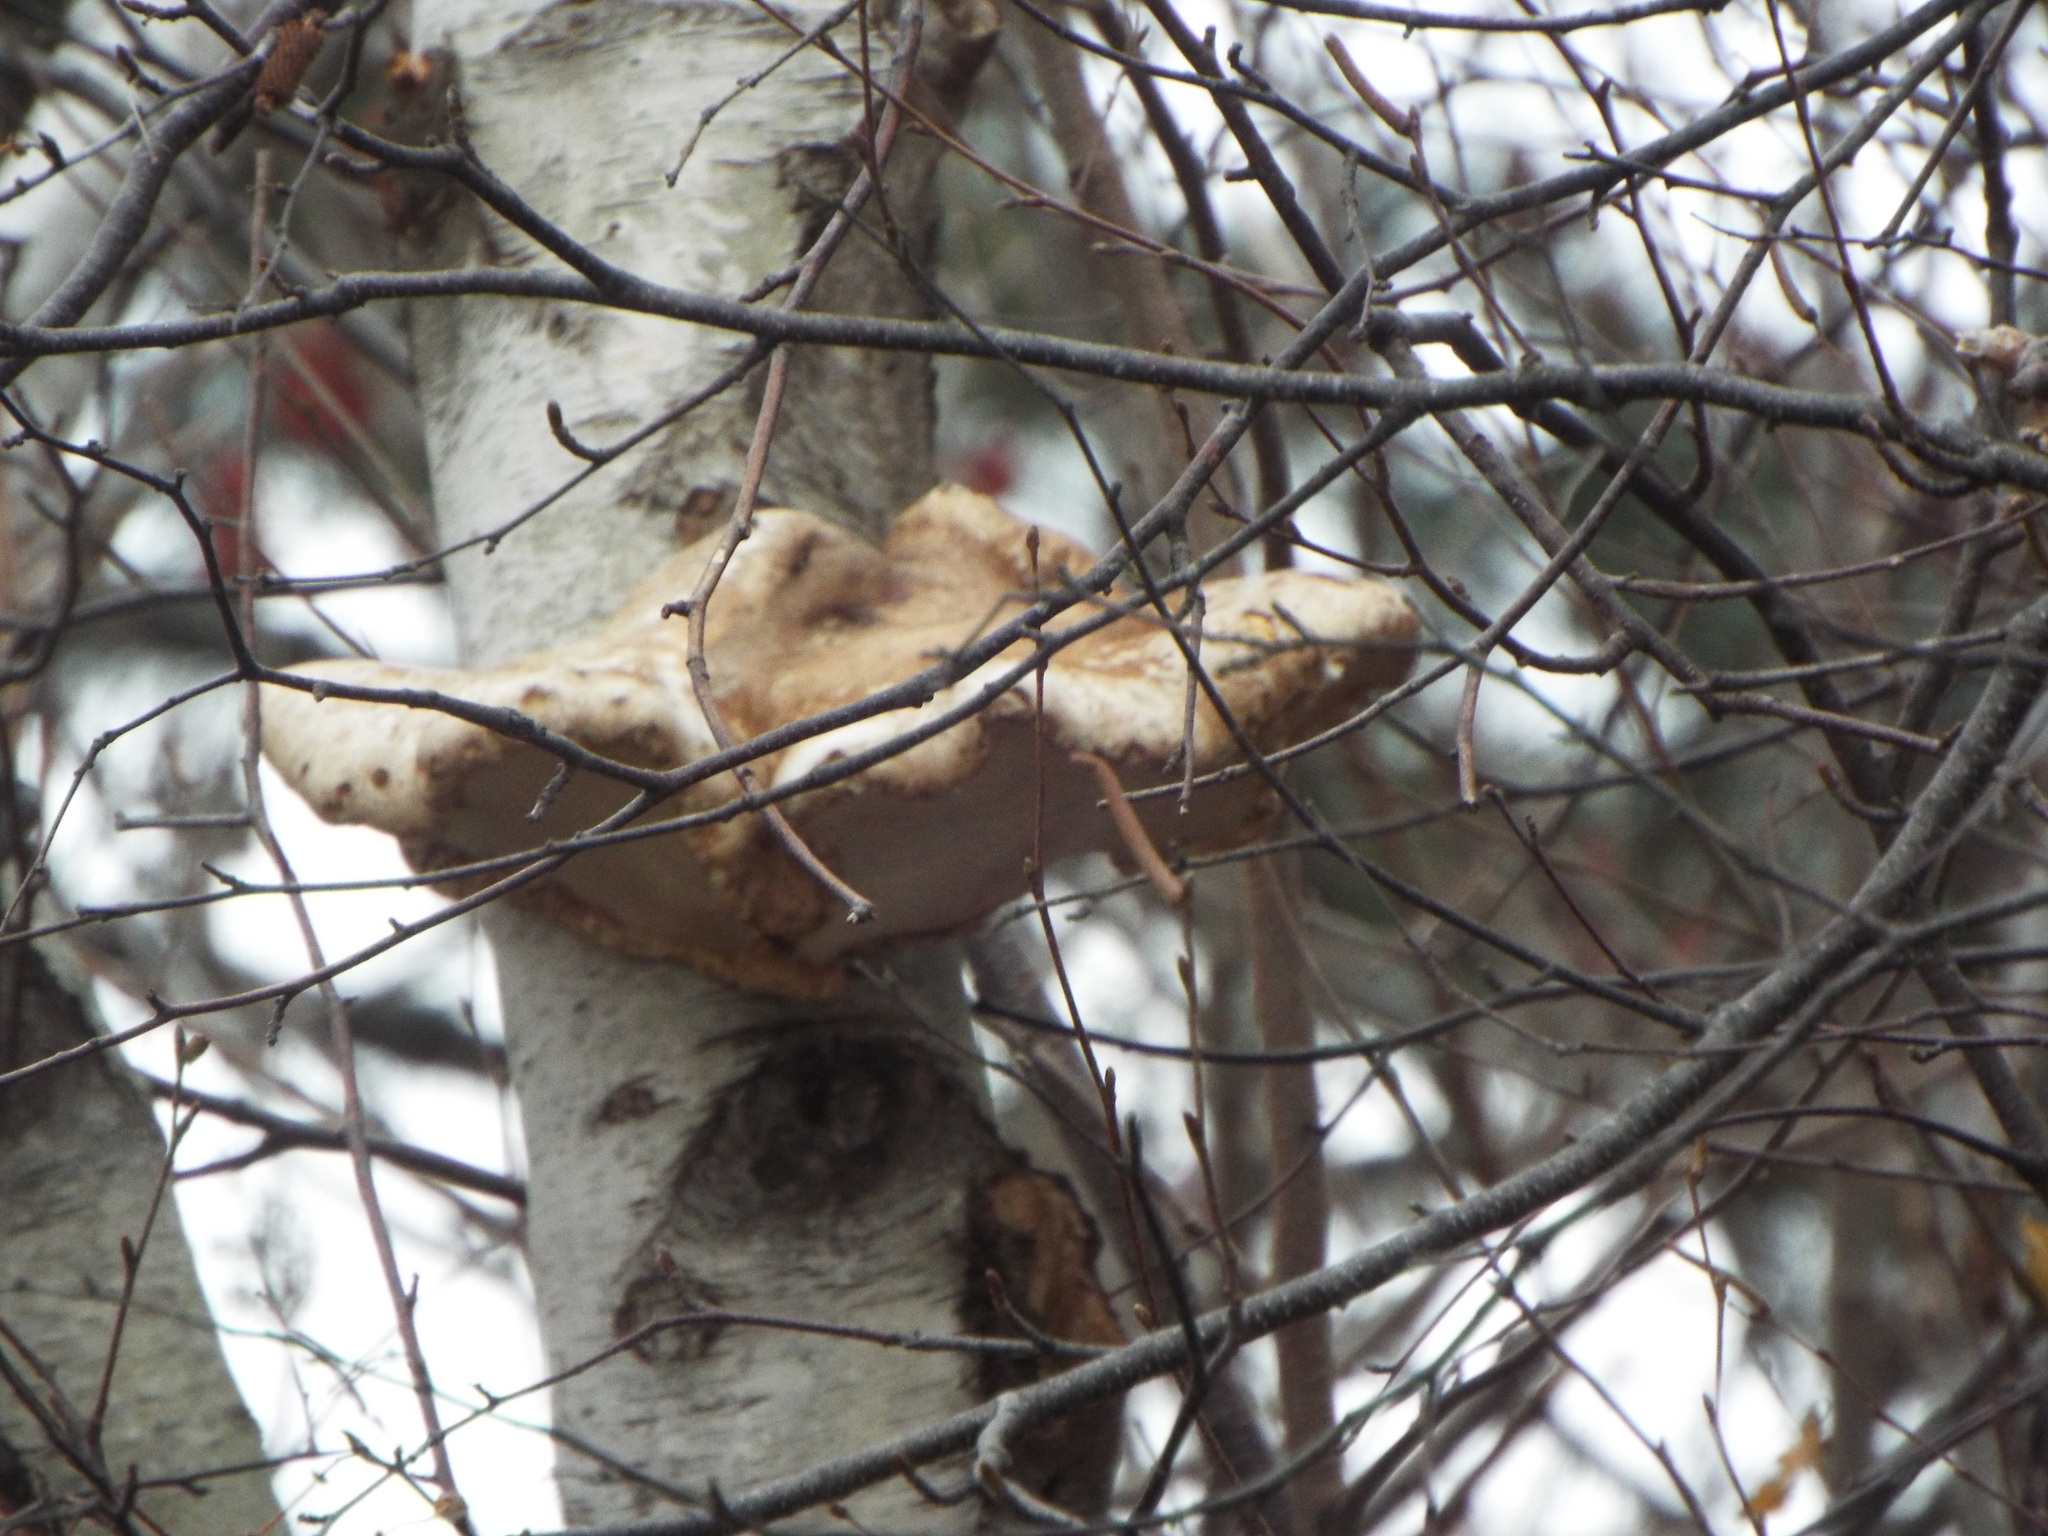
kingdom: Fungi
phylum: Basidiomycota
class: Agaricomycetes
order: Polyporales
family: Fomitopsidaceae
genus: Fomitopsis
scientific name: Fomitopsis betulina
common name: Birch polypore
